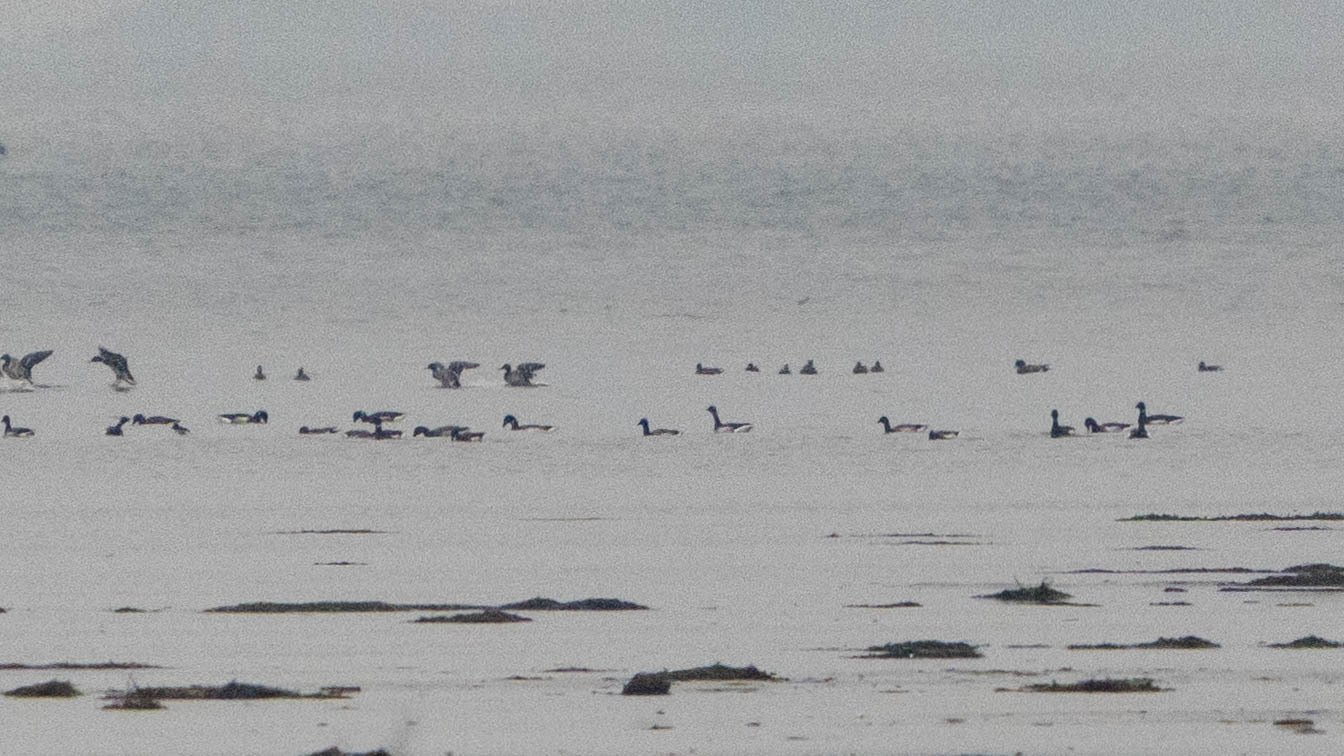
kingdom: Animalia
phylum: Chordata
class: Aves
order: Anseriformes
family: Anatidae
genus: Branta
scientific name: Branta bernicla
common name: Brant goose
